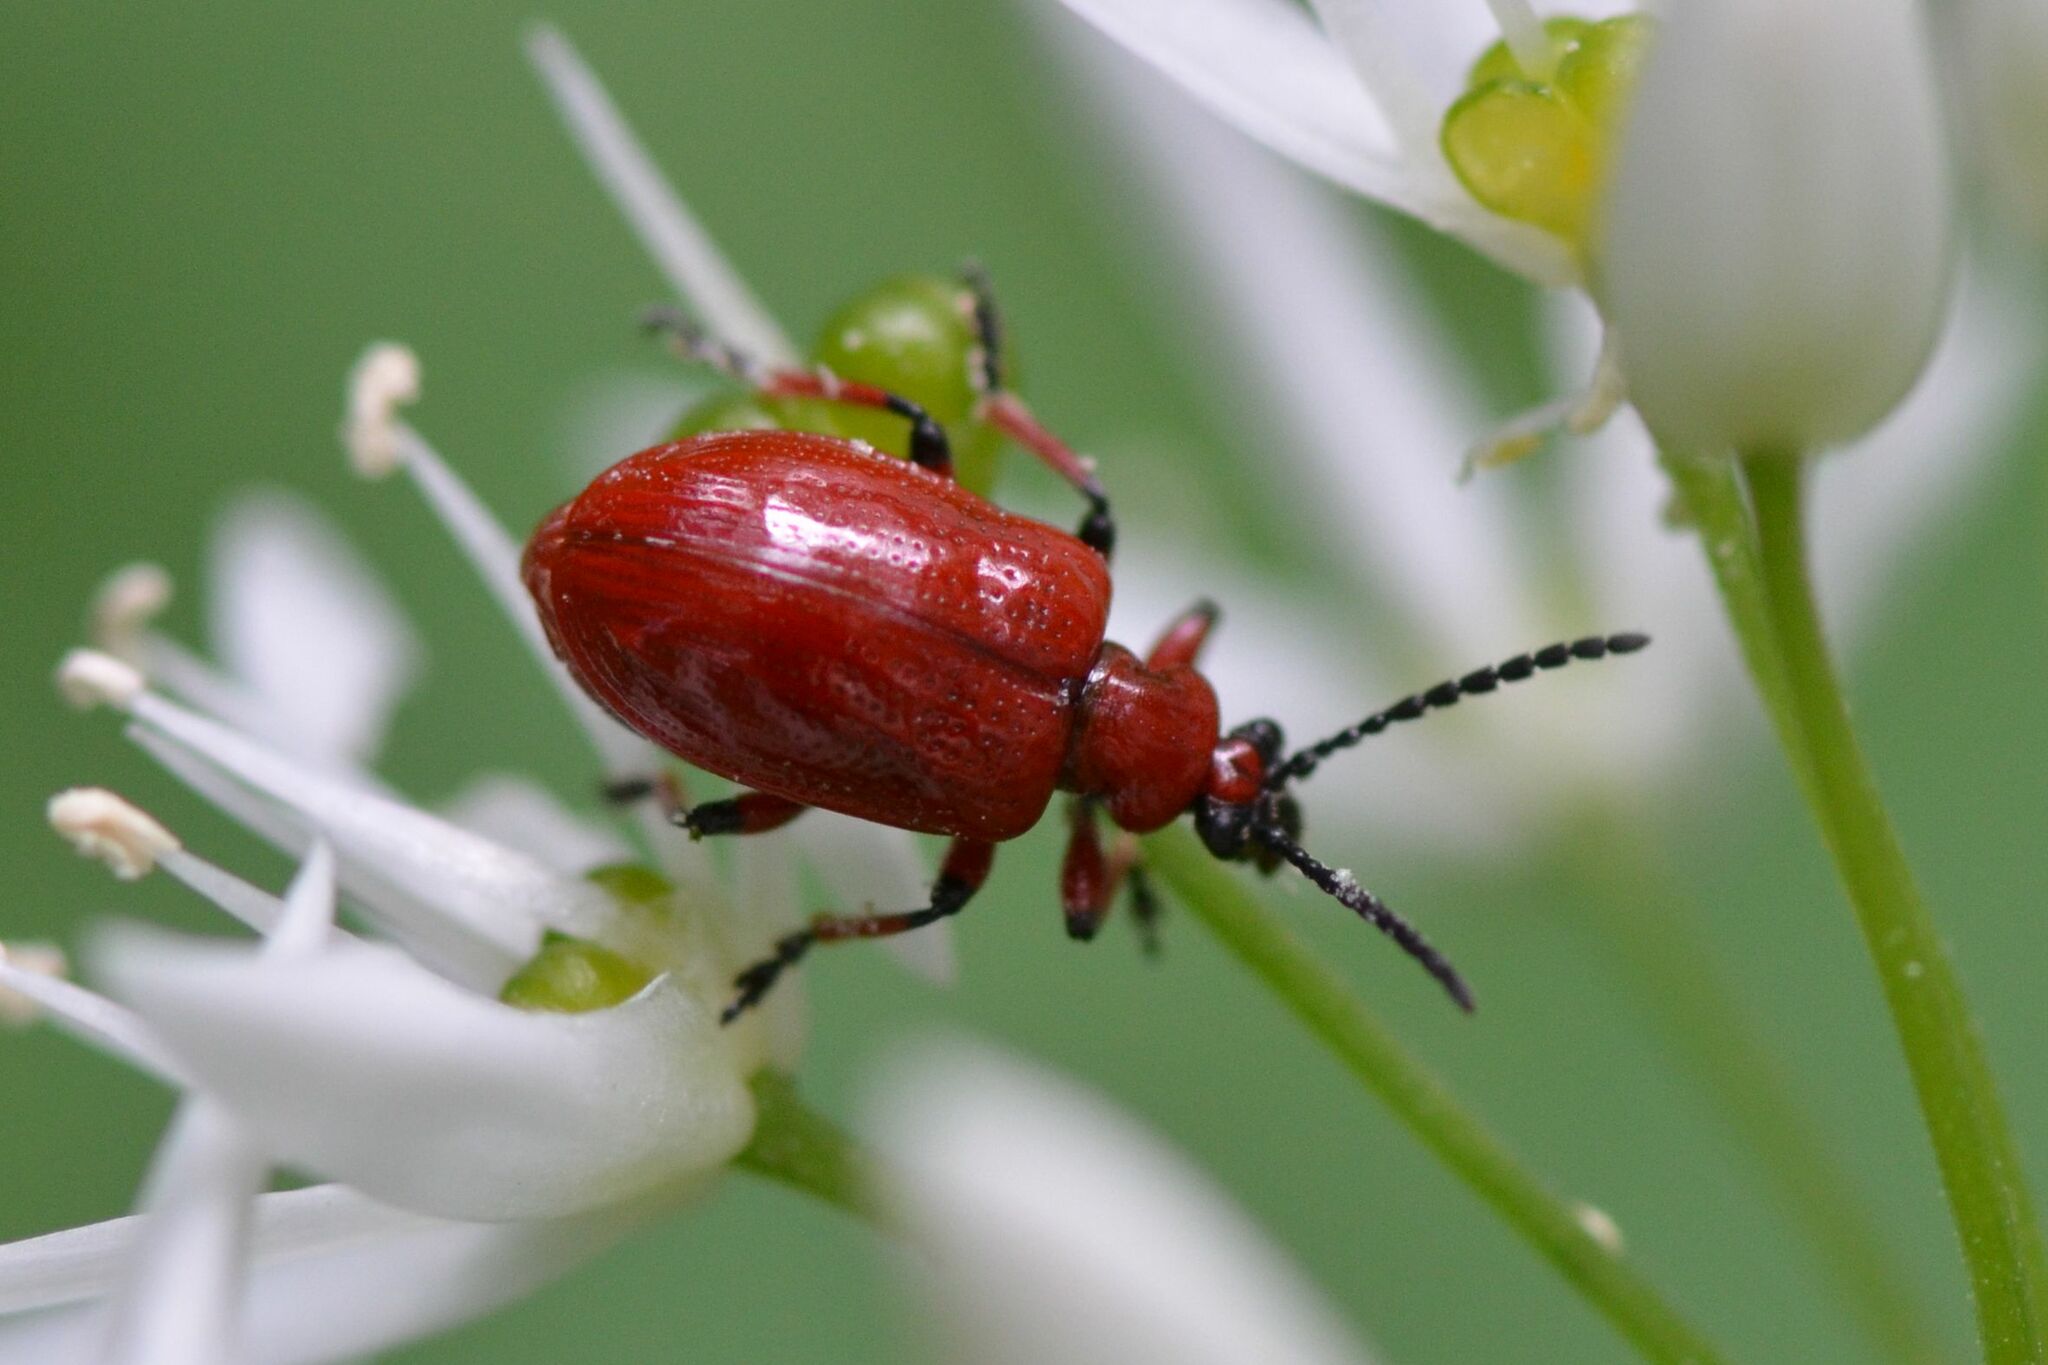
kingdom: Animalia
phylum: Arthropoda
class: Insecta
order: Coleoptera
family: Chrysomelidae
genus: Lilioceris
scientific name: Lilioceris merdigera
